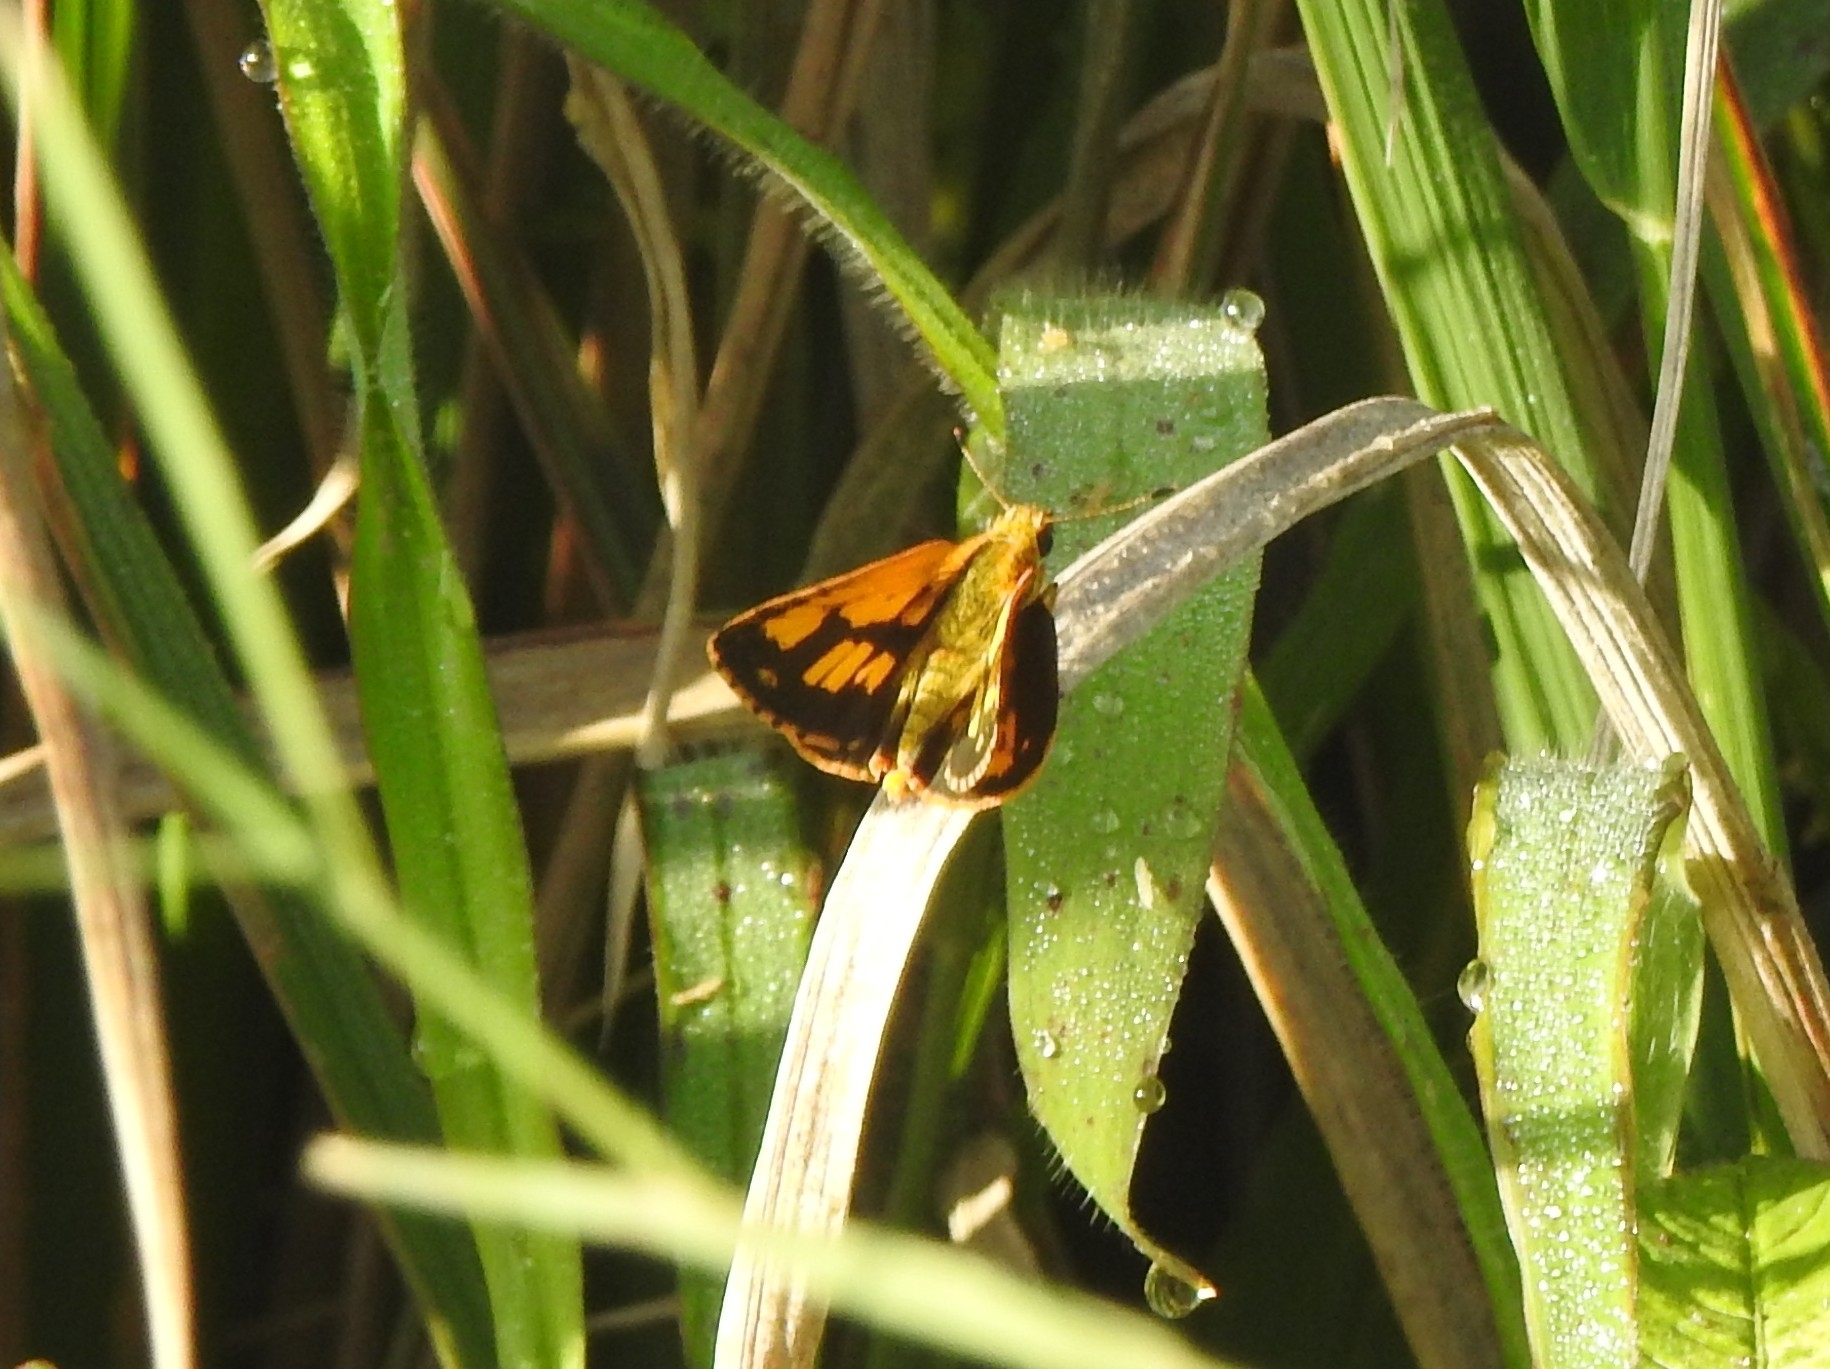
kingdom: Animalia
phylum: Arthropoda
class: Insecta
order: Lepidoptera
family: Hesperiidae
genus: Ampittia
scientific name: Ampittia dioscorides
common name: Common bush hopper
